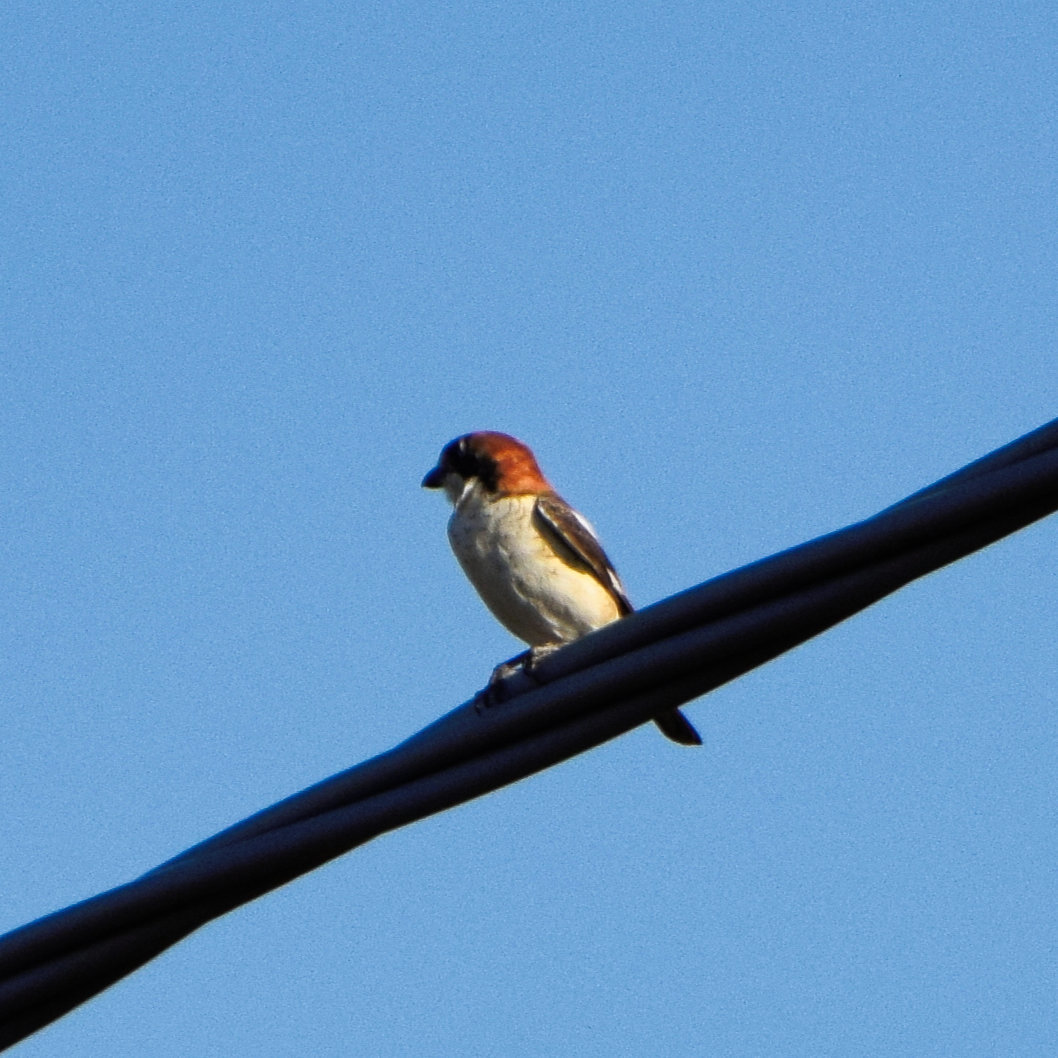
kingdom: Animalia
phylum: Chordata
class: Aves
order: Passeriformes
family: Laniidae
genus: Lanius
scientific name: Lanius senator
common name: Woodchat shrike
